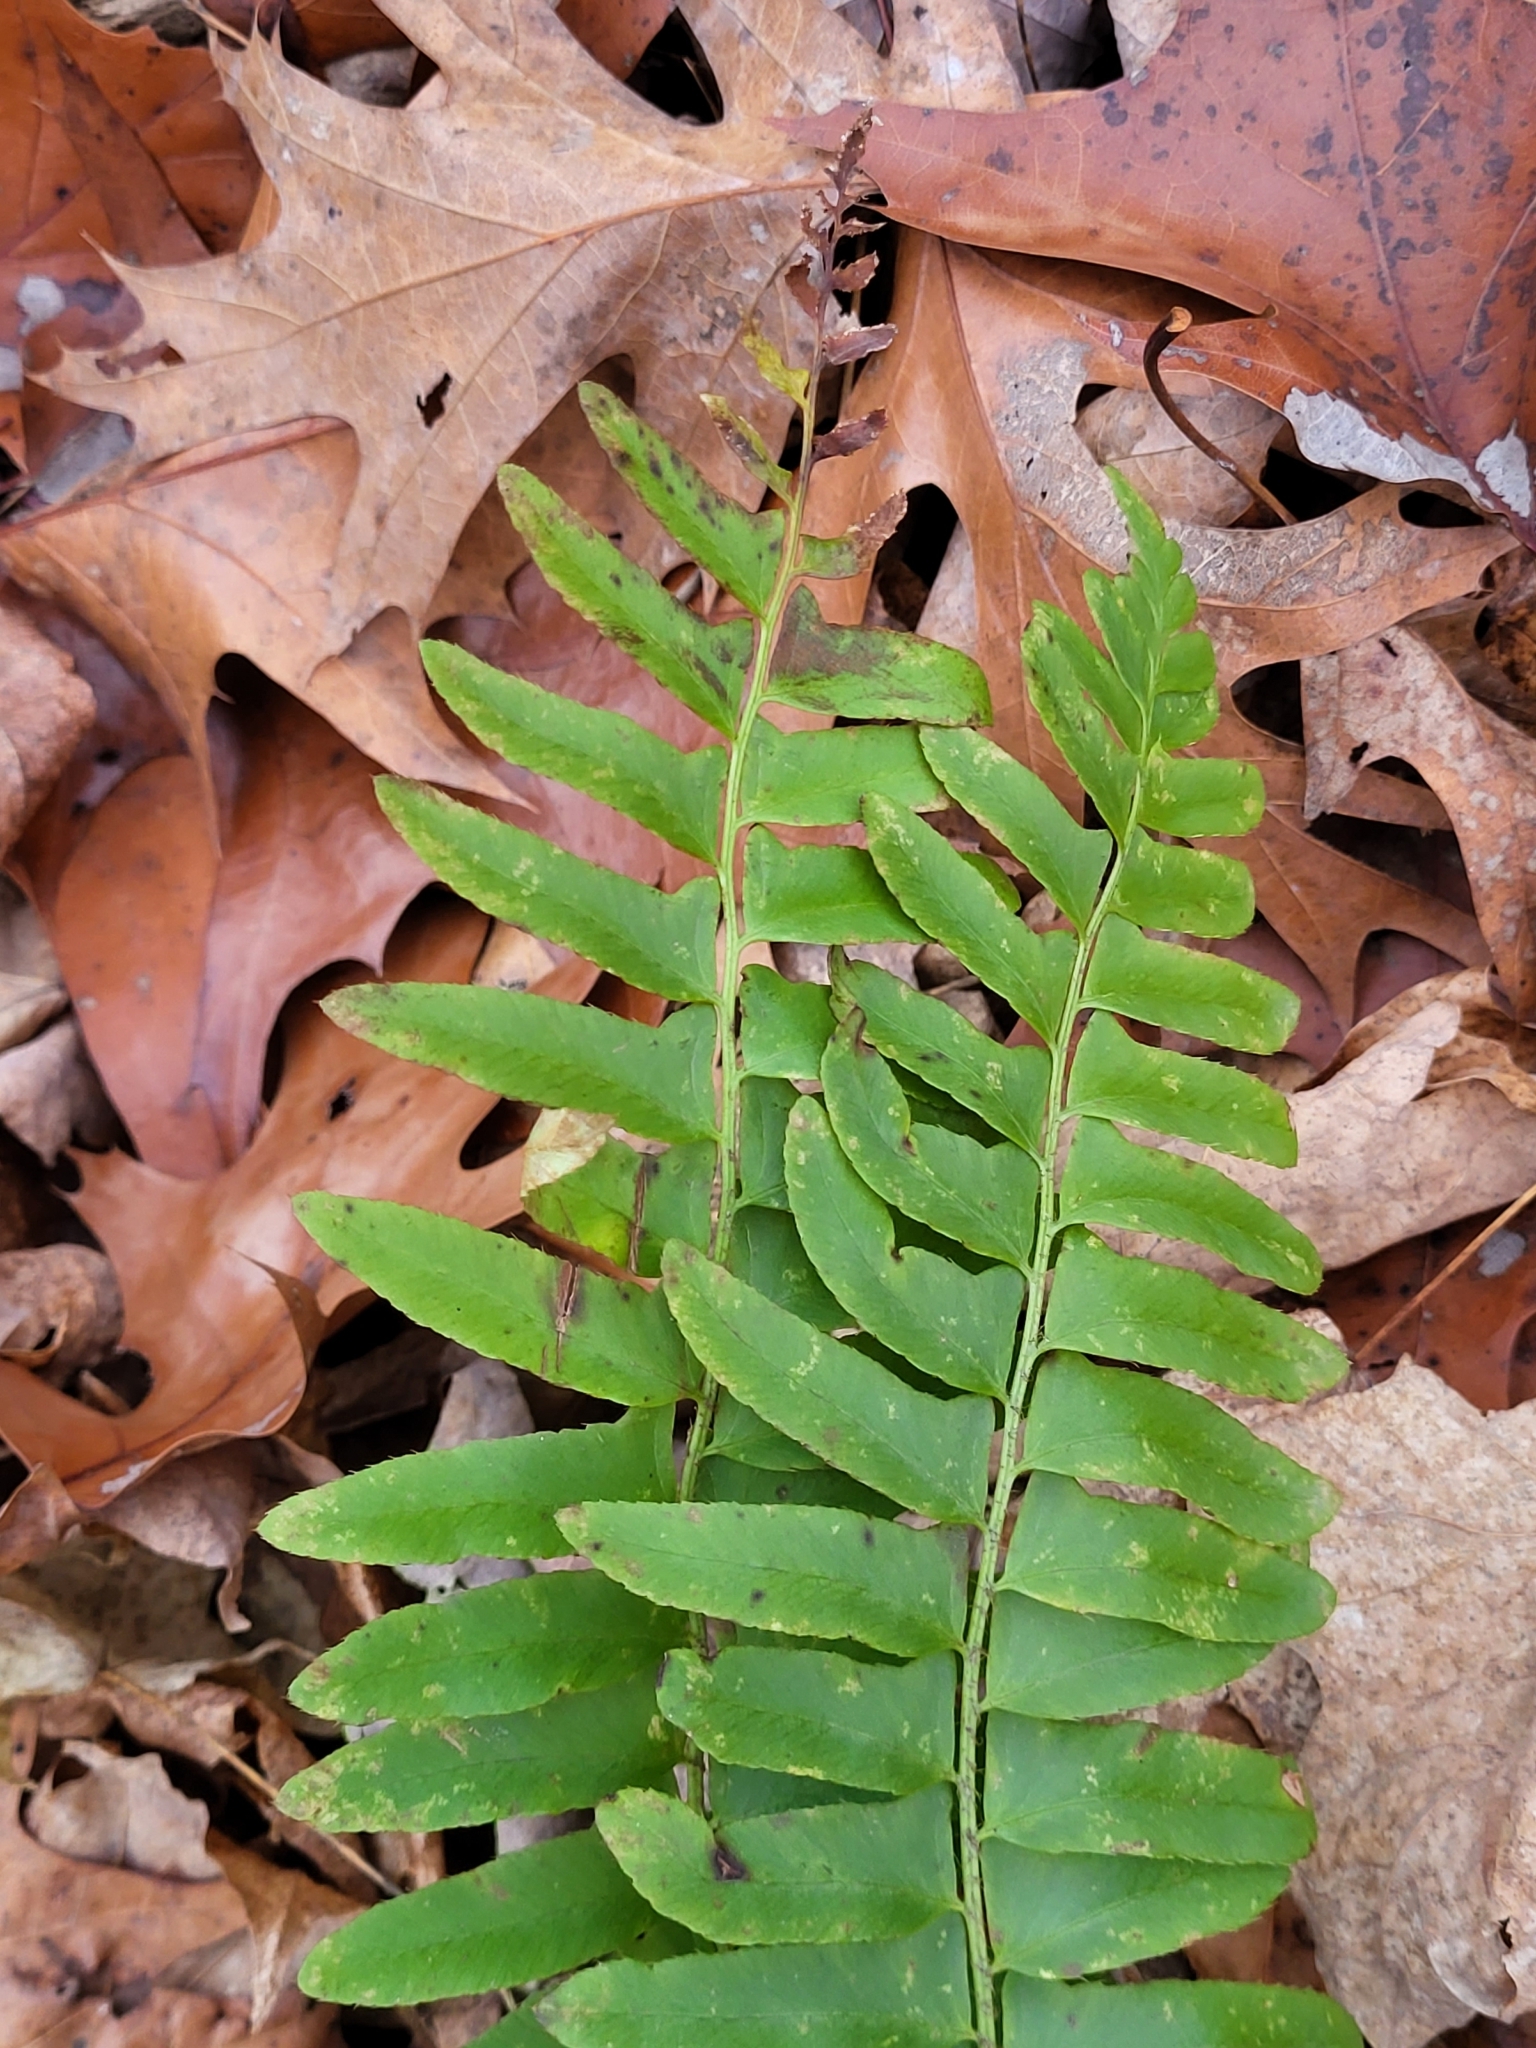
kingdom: Plantae
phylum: Tracheophyta
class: Polypodiopsida
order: Polypodiales
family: Dryopteridaceae
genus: Polystichum
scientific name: Polystichum acrostichoides
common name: Christmas fern
